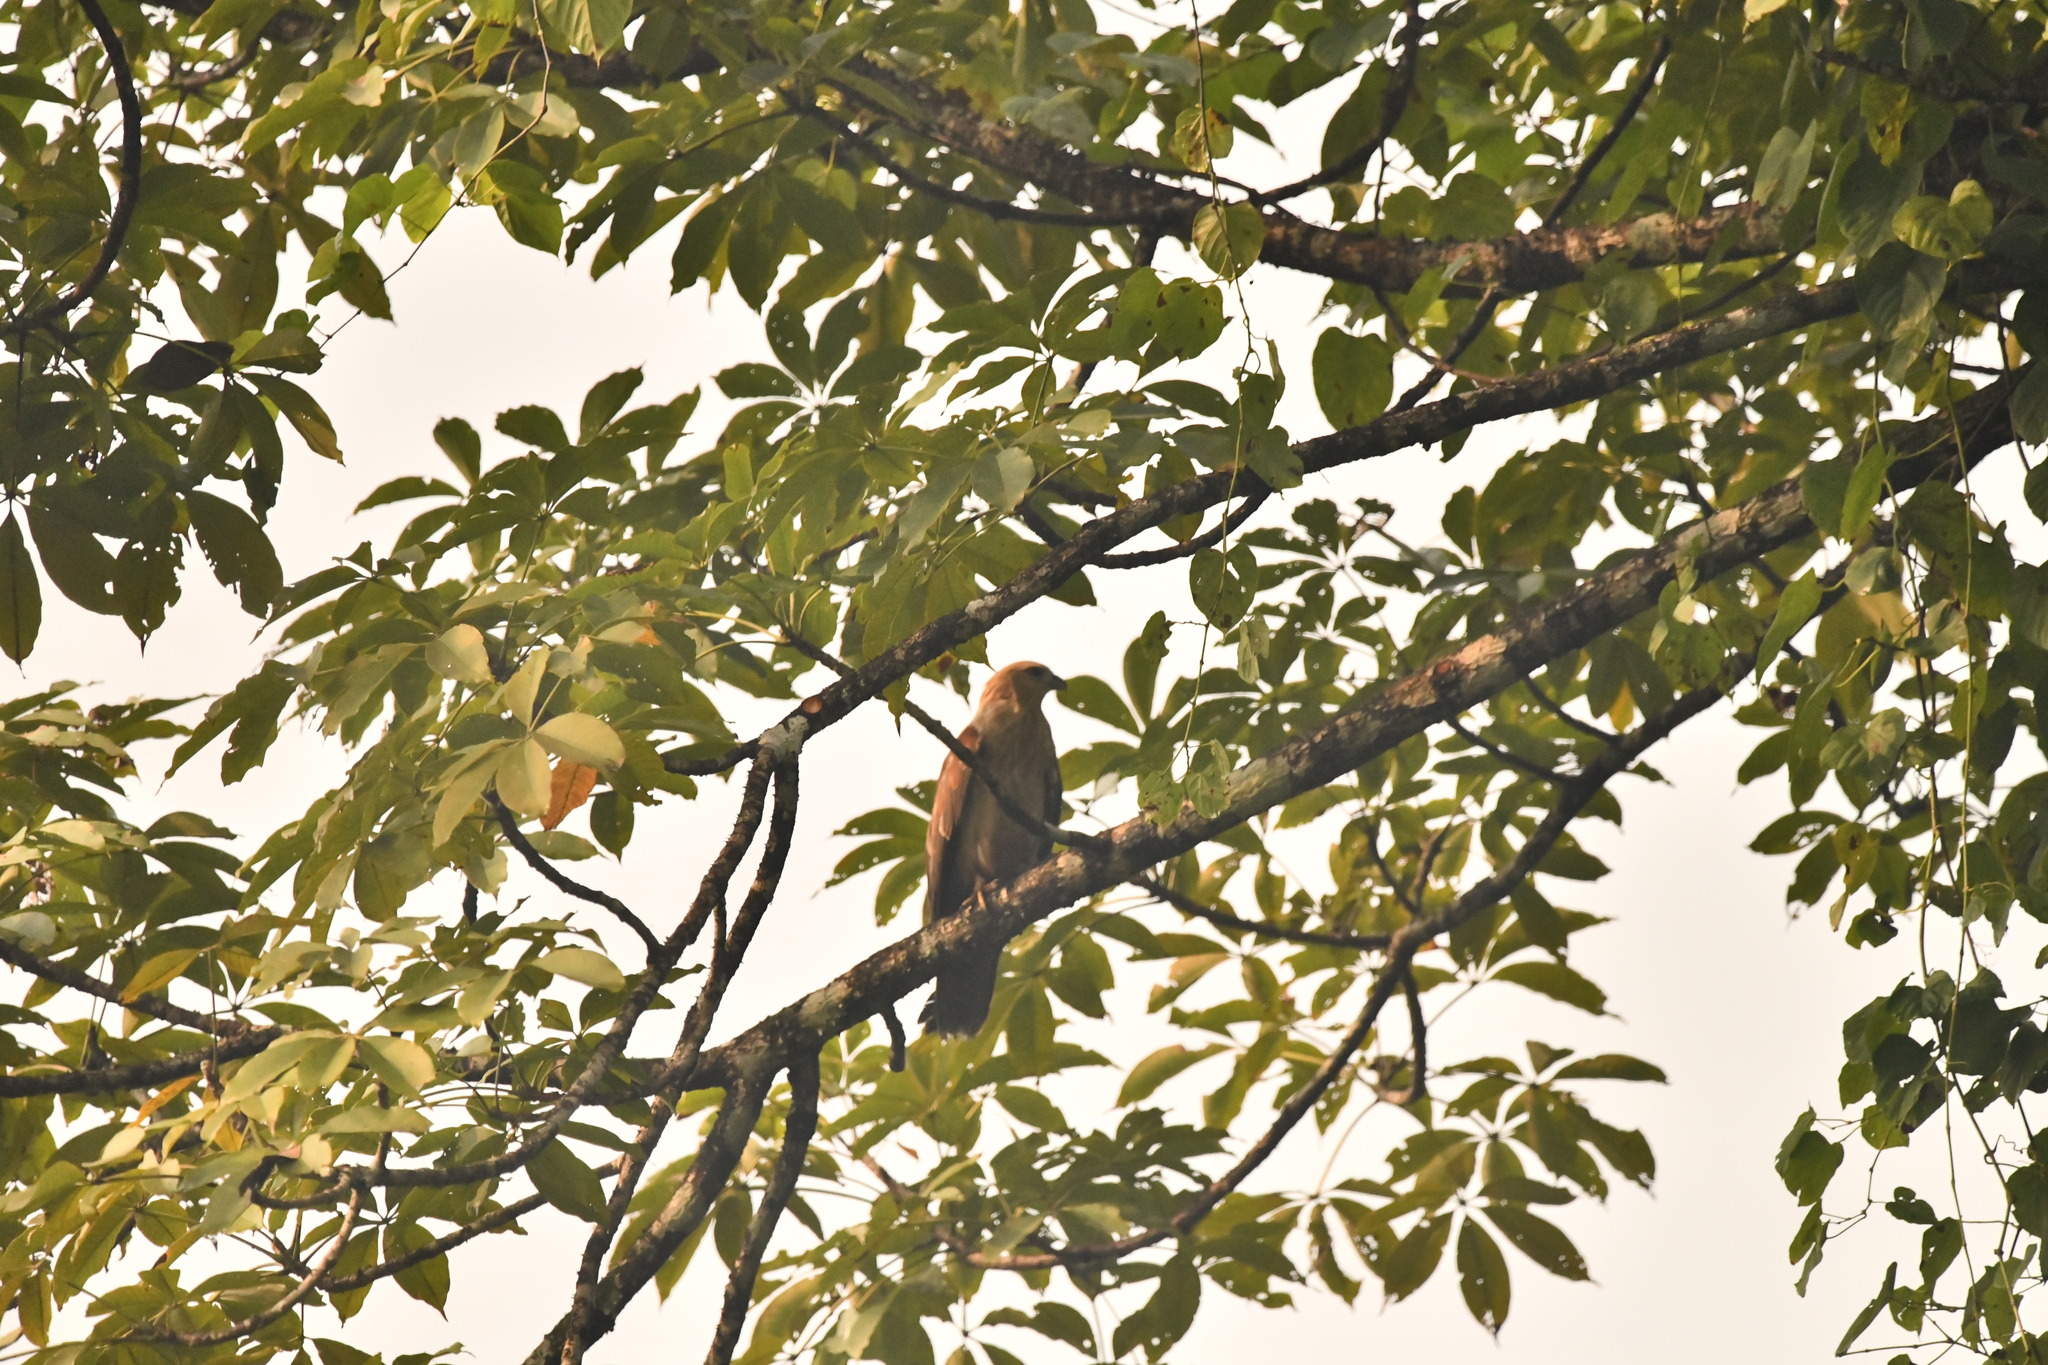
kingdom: Animalia
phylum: Chordata
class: Aves
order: Accipitriformes
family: Accipitridae
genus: Haliastur
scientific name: Haliastur indus
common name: Brahminy kite
